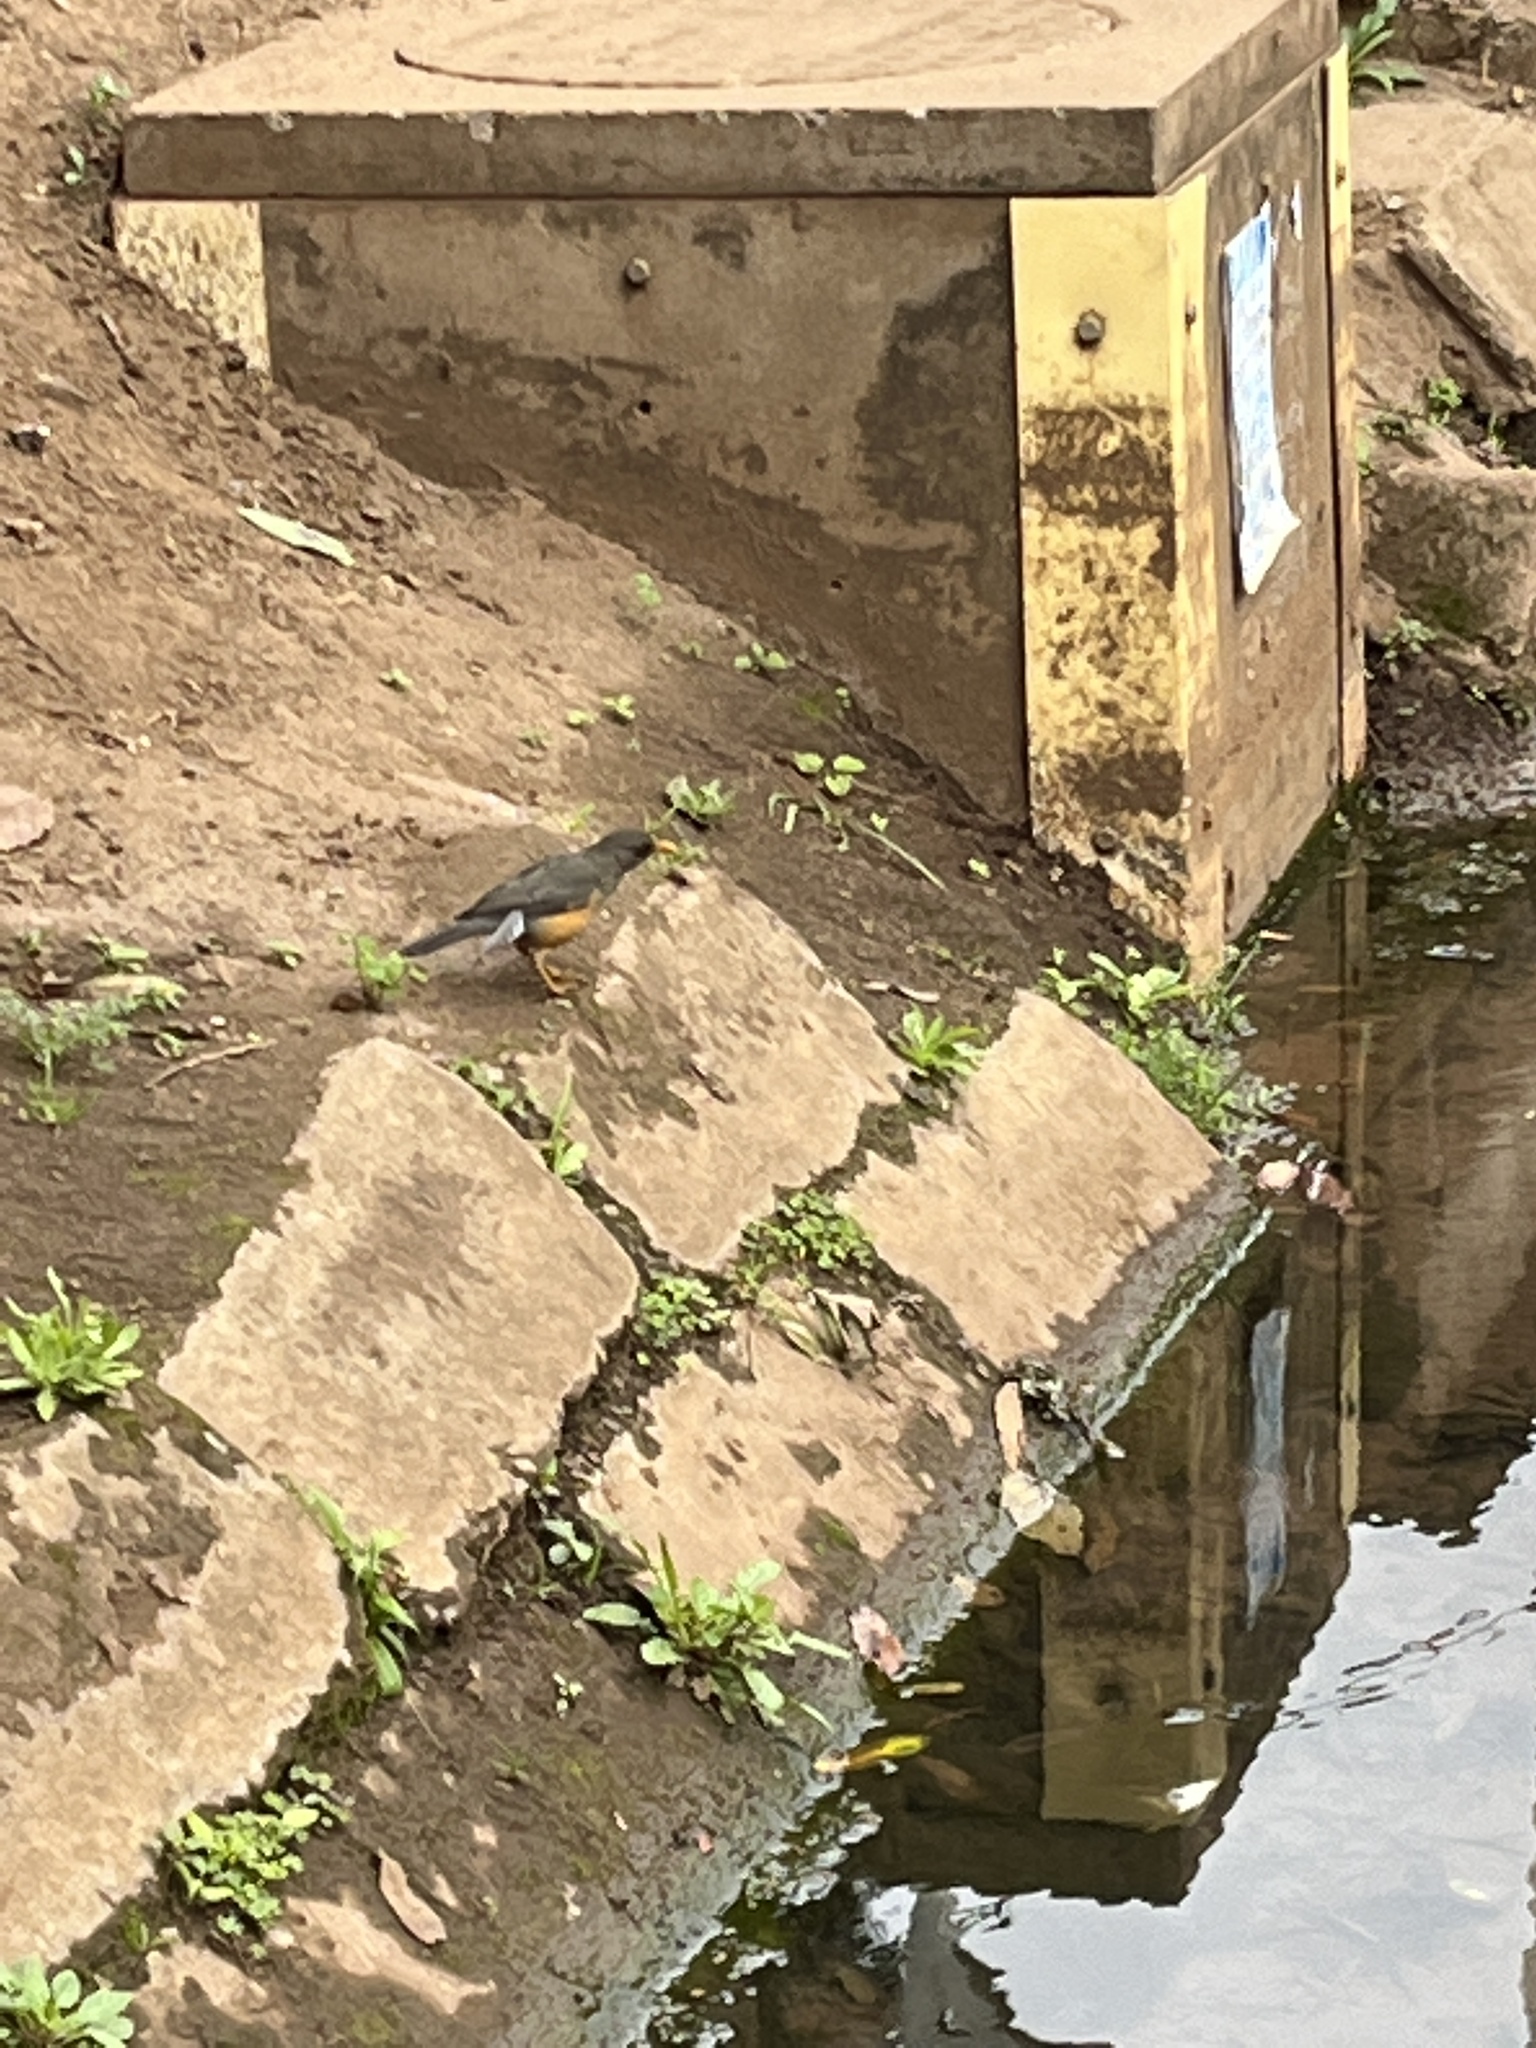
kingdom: Animalia
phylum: Chordata
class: Aves
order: Passeriformes
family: Turdidae
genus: Turdus
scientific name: Turdus abyssinicus
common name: Abyssinian thrush
